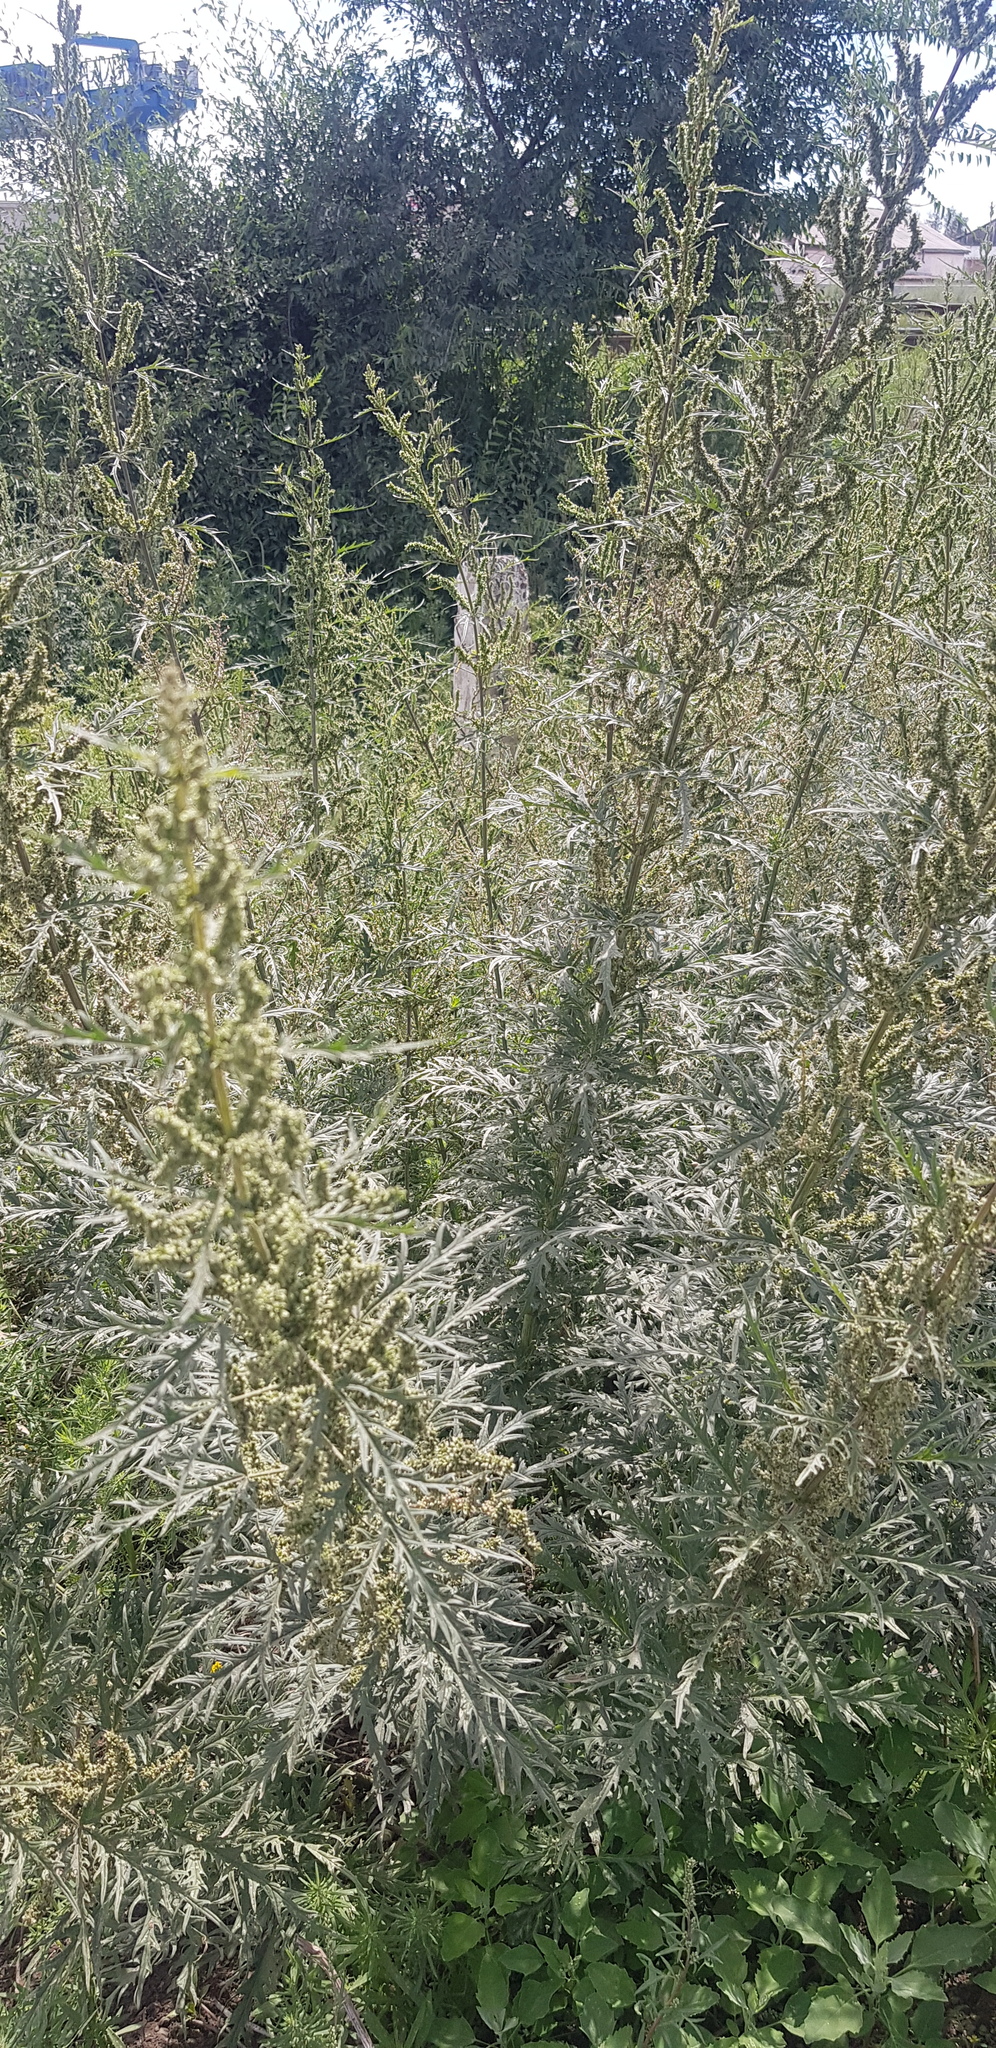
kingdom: Plantae
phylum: Tracheophyta
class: Magnoliopsida
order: Rosales
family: Urticaceae
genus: Urtica
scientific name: Urtica cannabina
